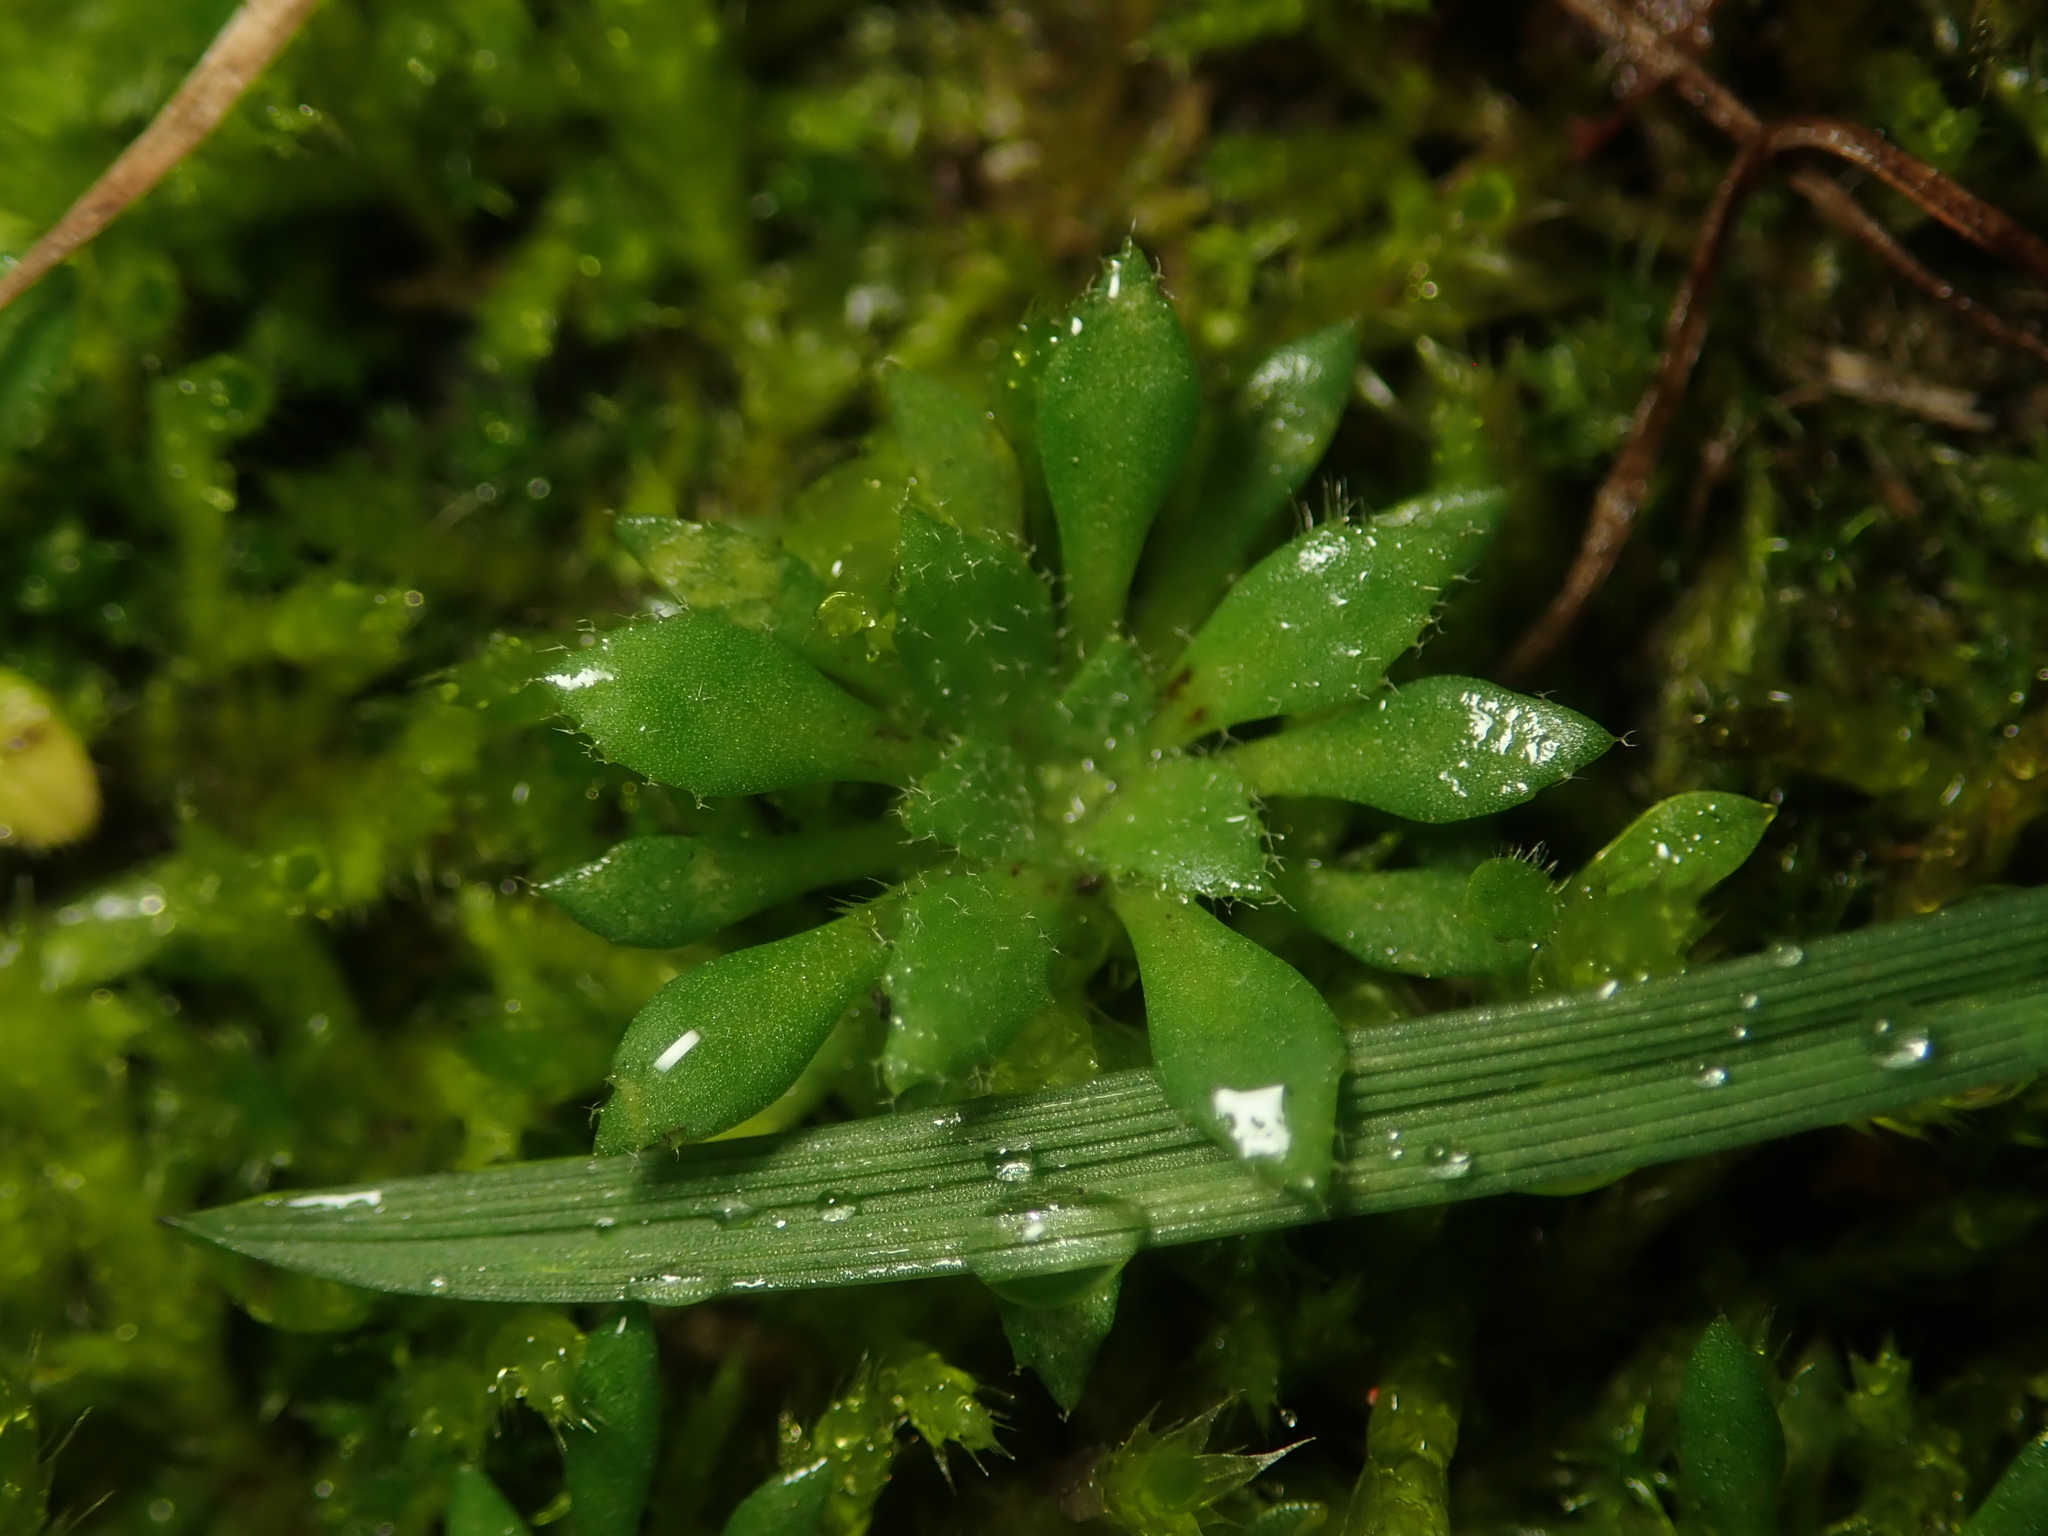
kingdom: Plantae
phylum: Tracheophyta
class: Magnoliopsida
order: Brassicales
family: Brassicaceae
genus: Draba
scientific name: Draba verna
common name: Spring draba
